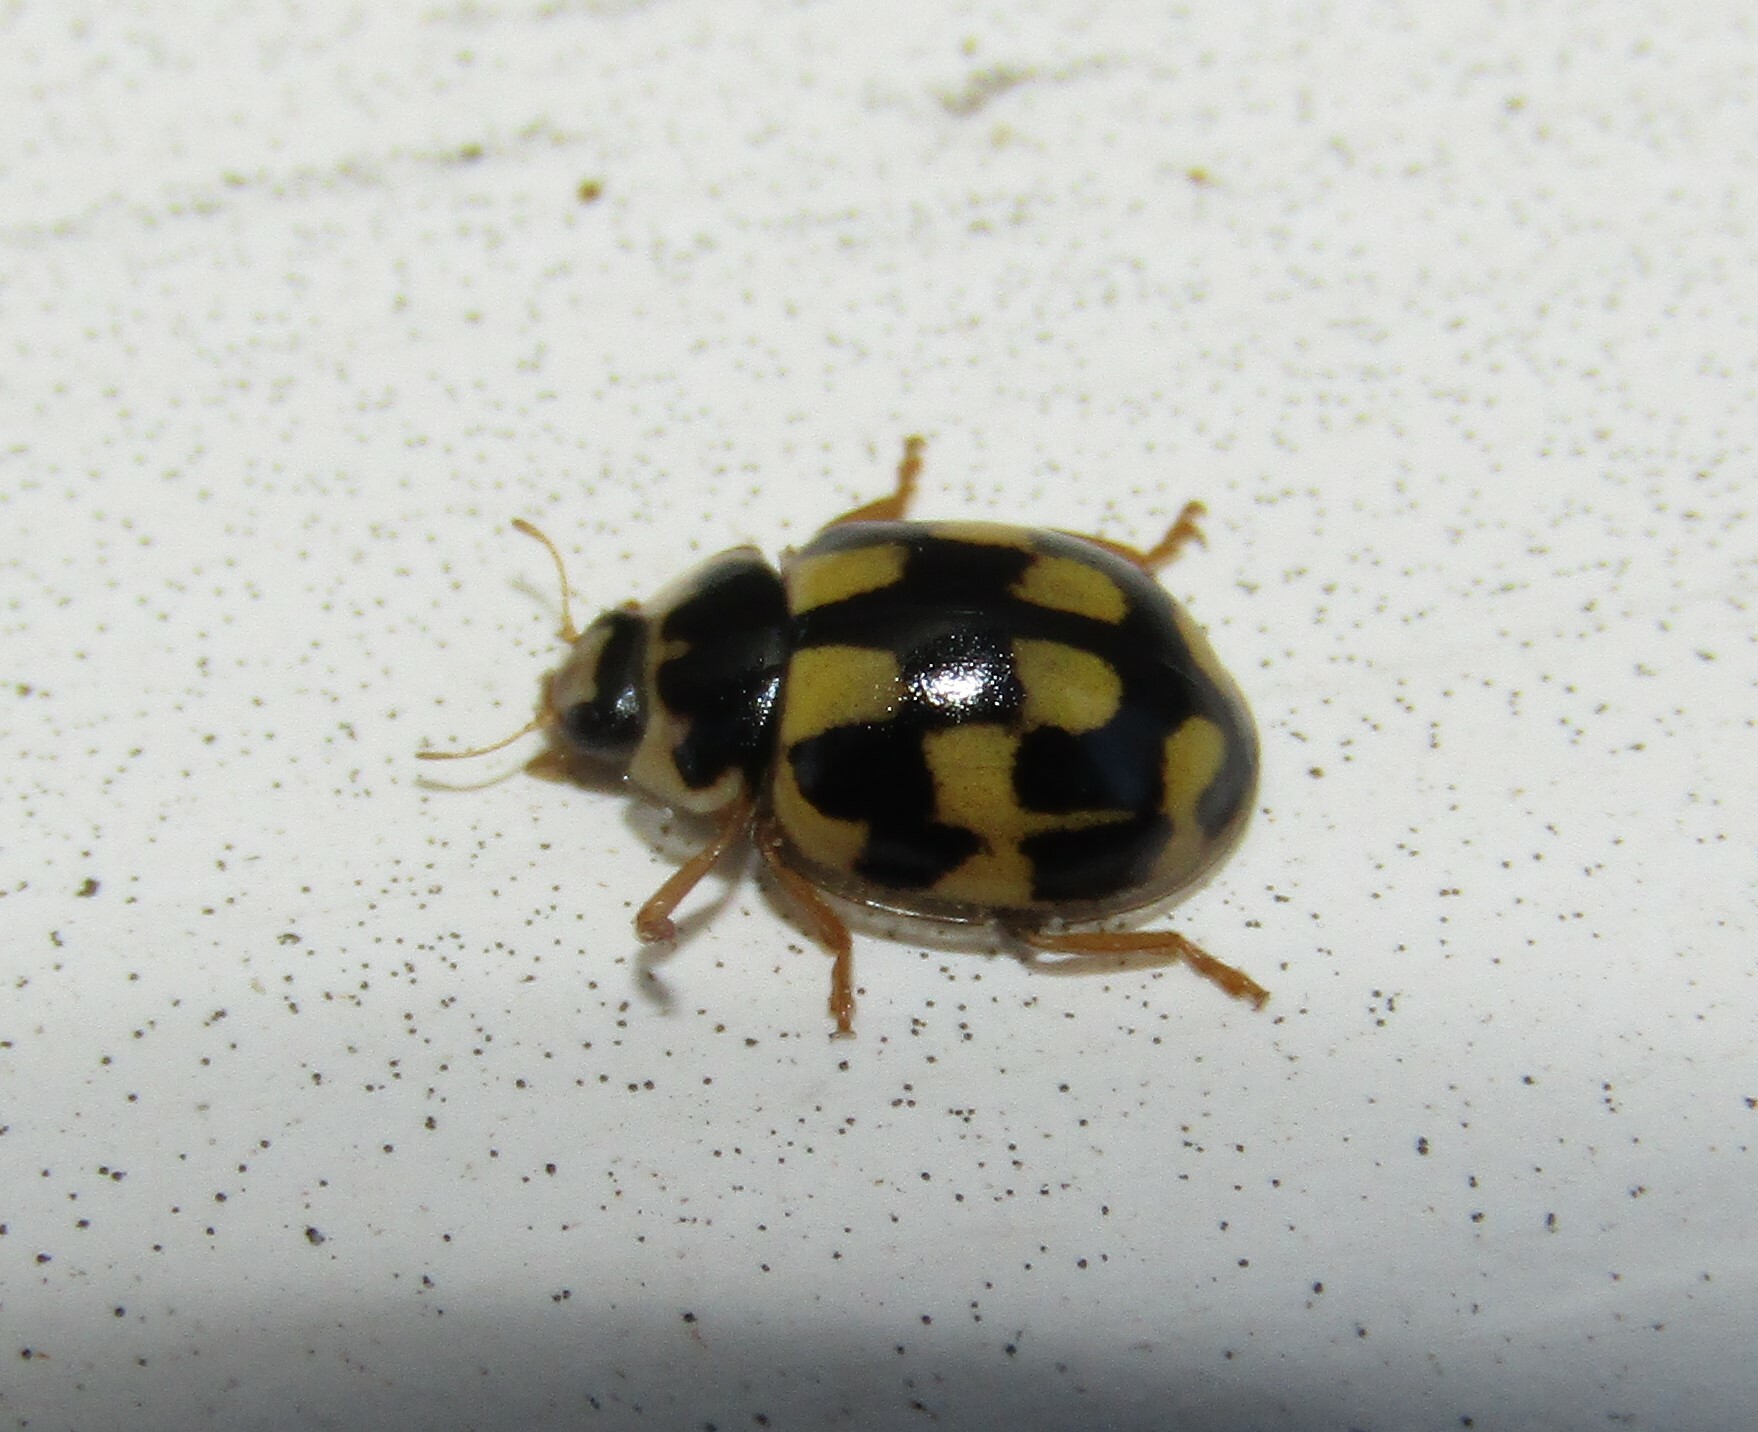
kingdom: Animalia
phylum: Arthropoda
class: Insecta
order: Coleoptera
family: Coccinellidae
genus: Propylaea
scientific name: Propylaea quatuordecimpunctata
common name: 14-spotted ladybird beetle
